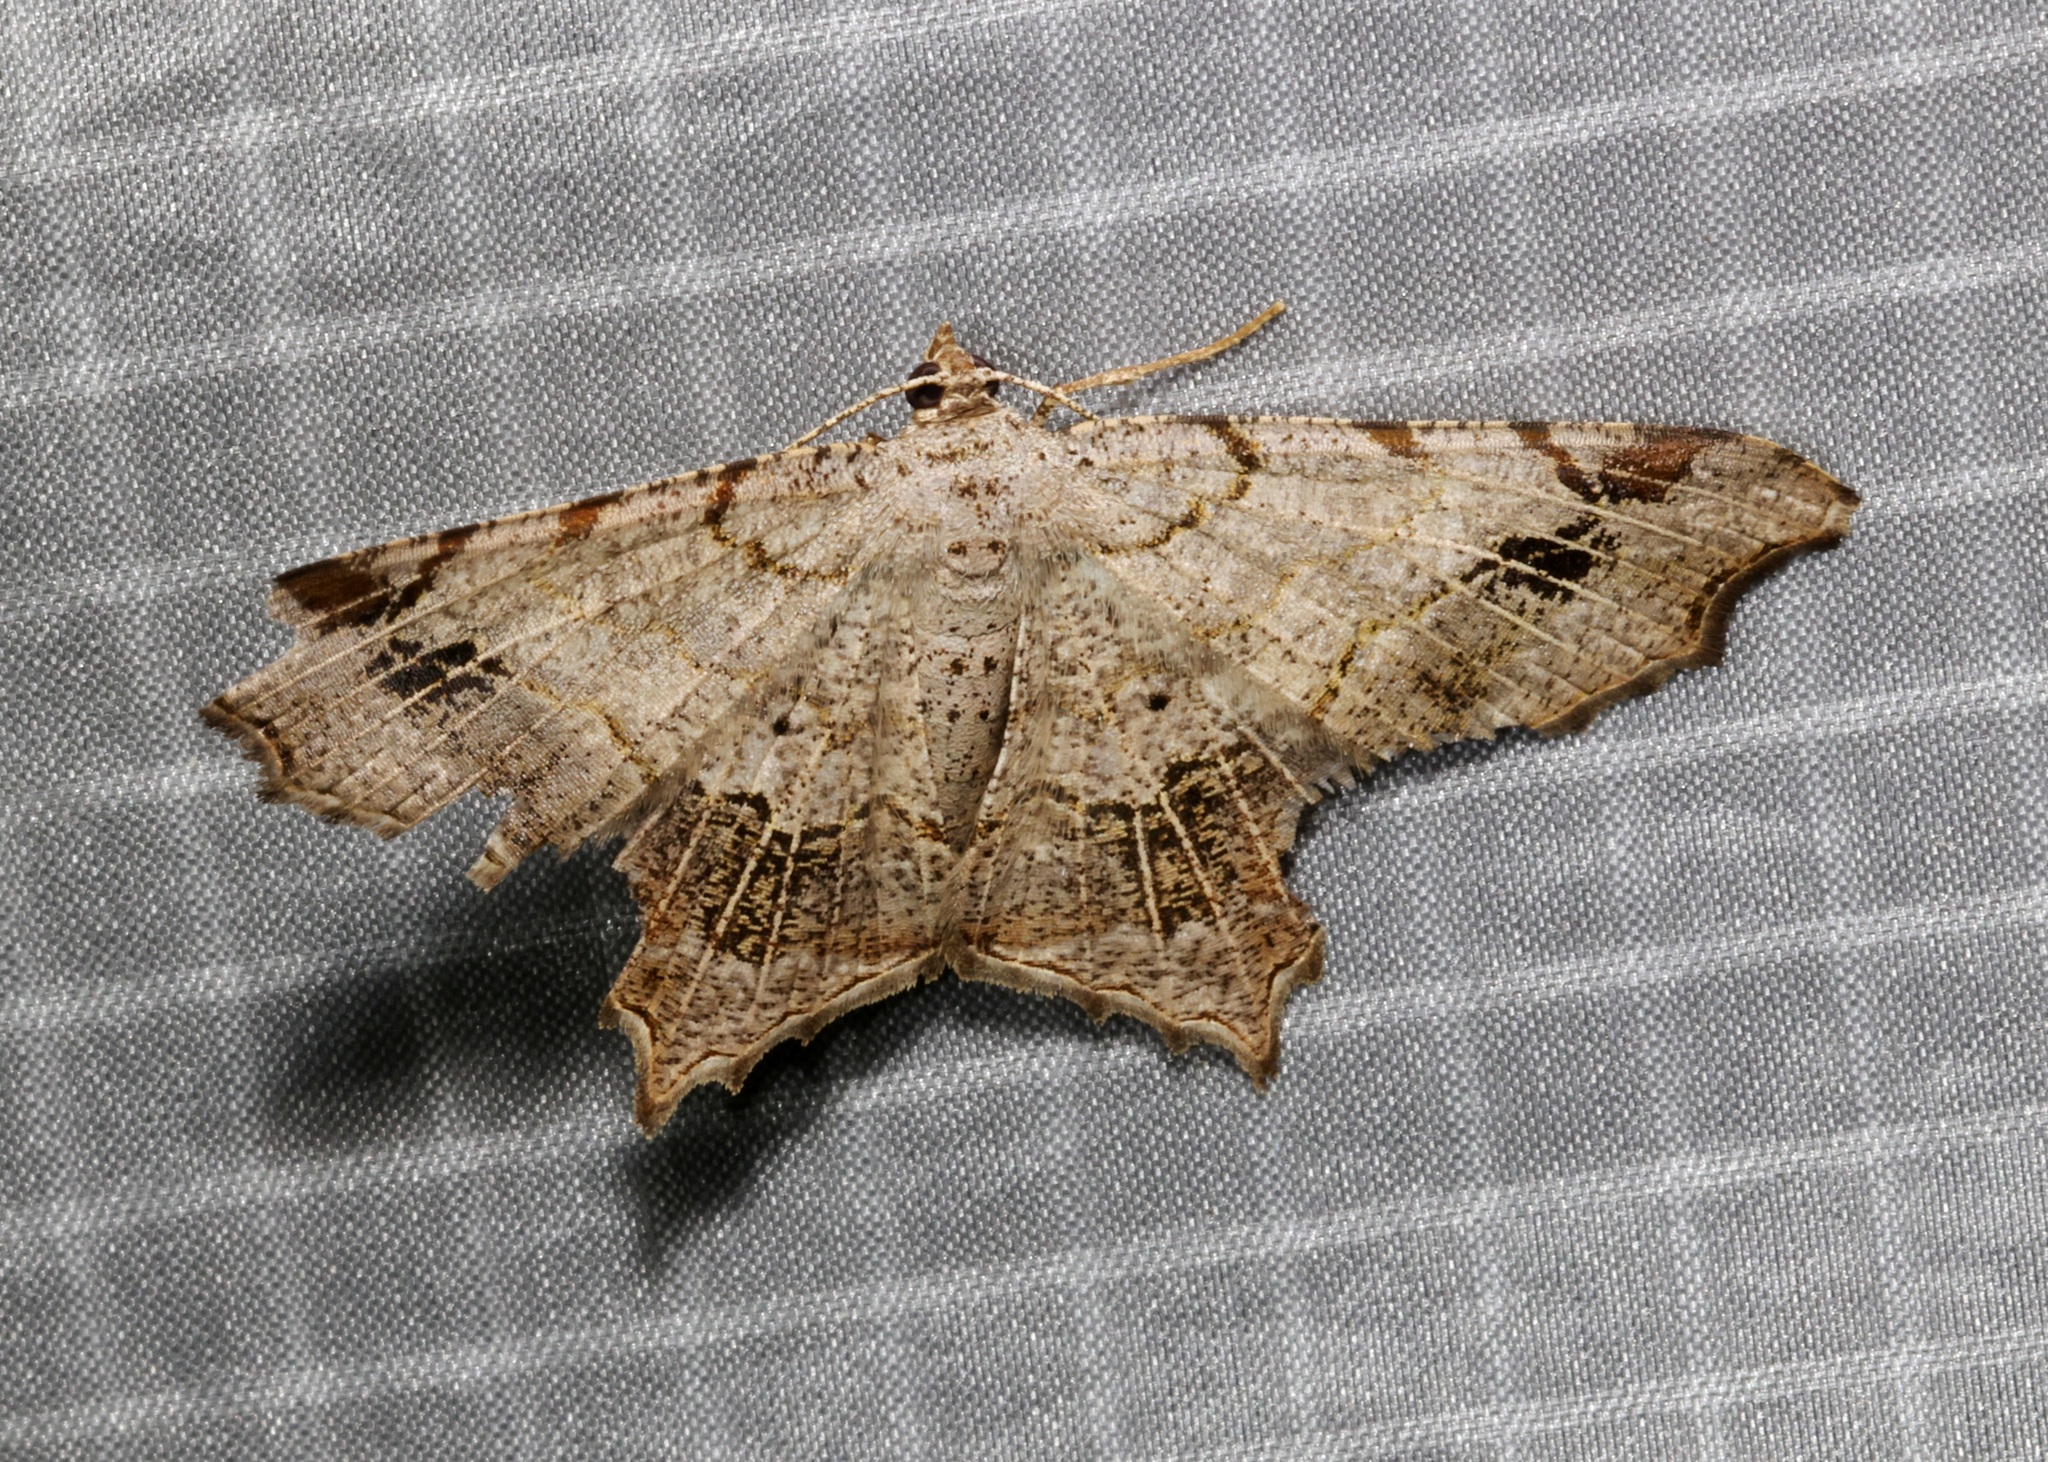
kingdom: Animalia
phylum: Arthropoda
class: Insecta
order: Lepidoptera
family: Geometridae
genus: Chiasmia
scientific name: Chiasmia emersaria
